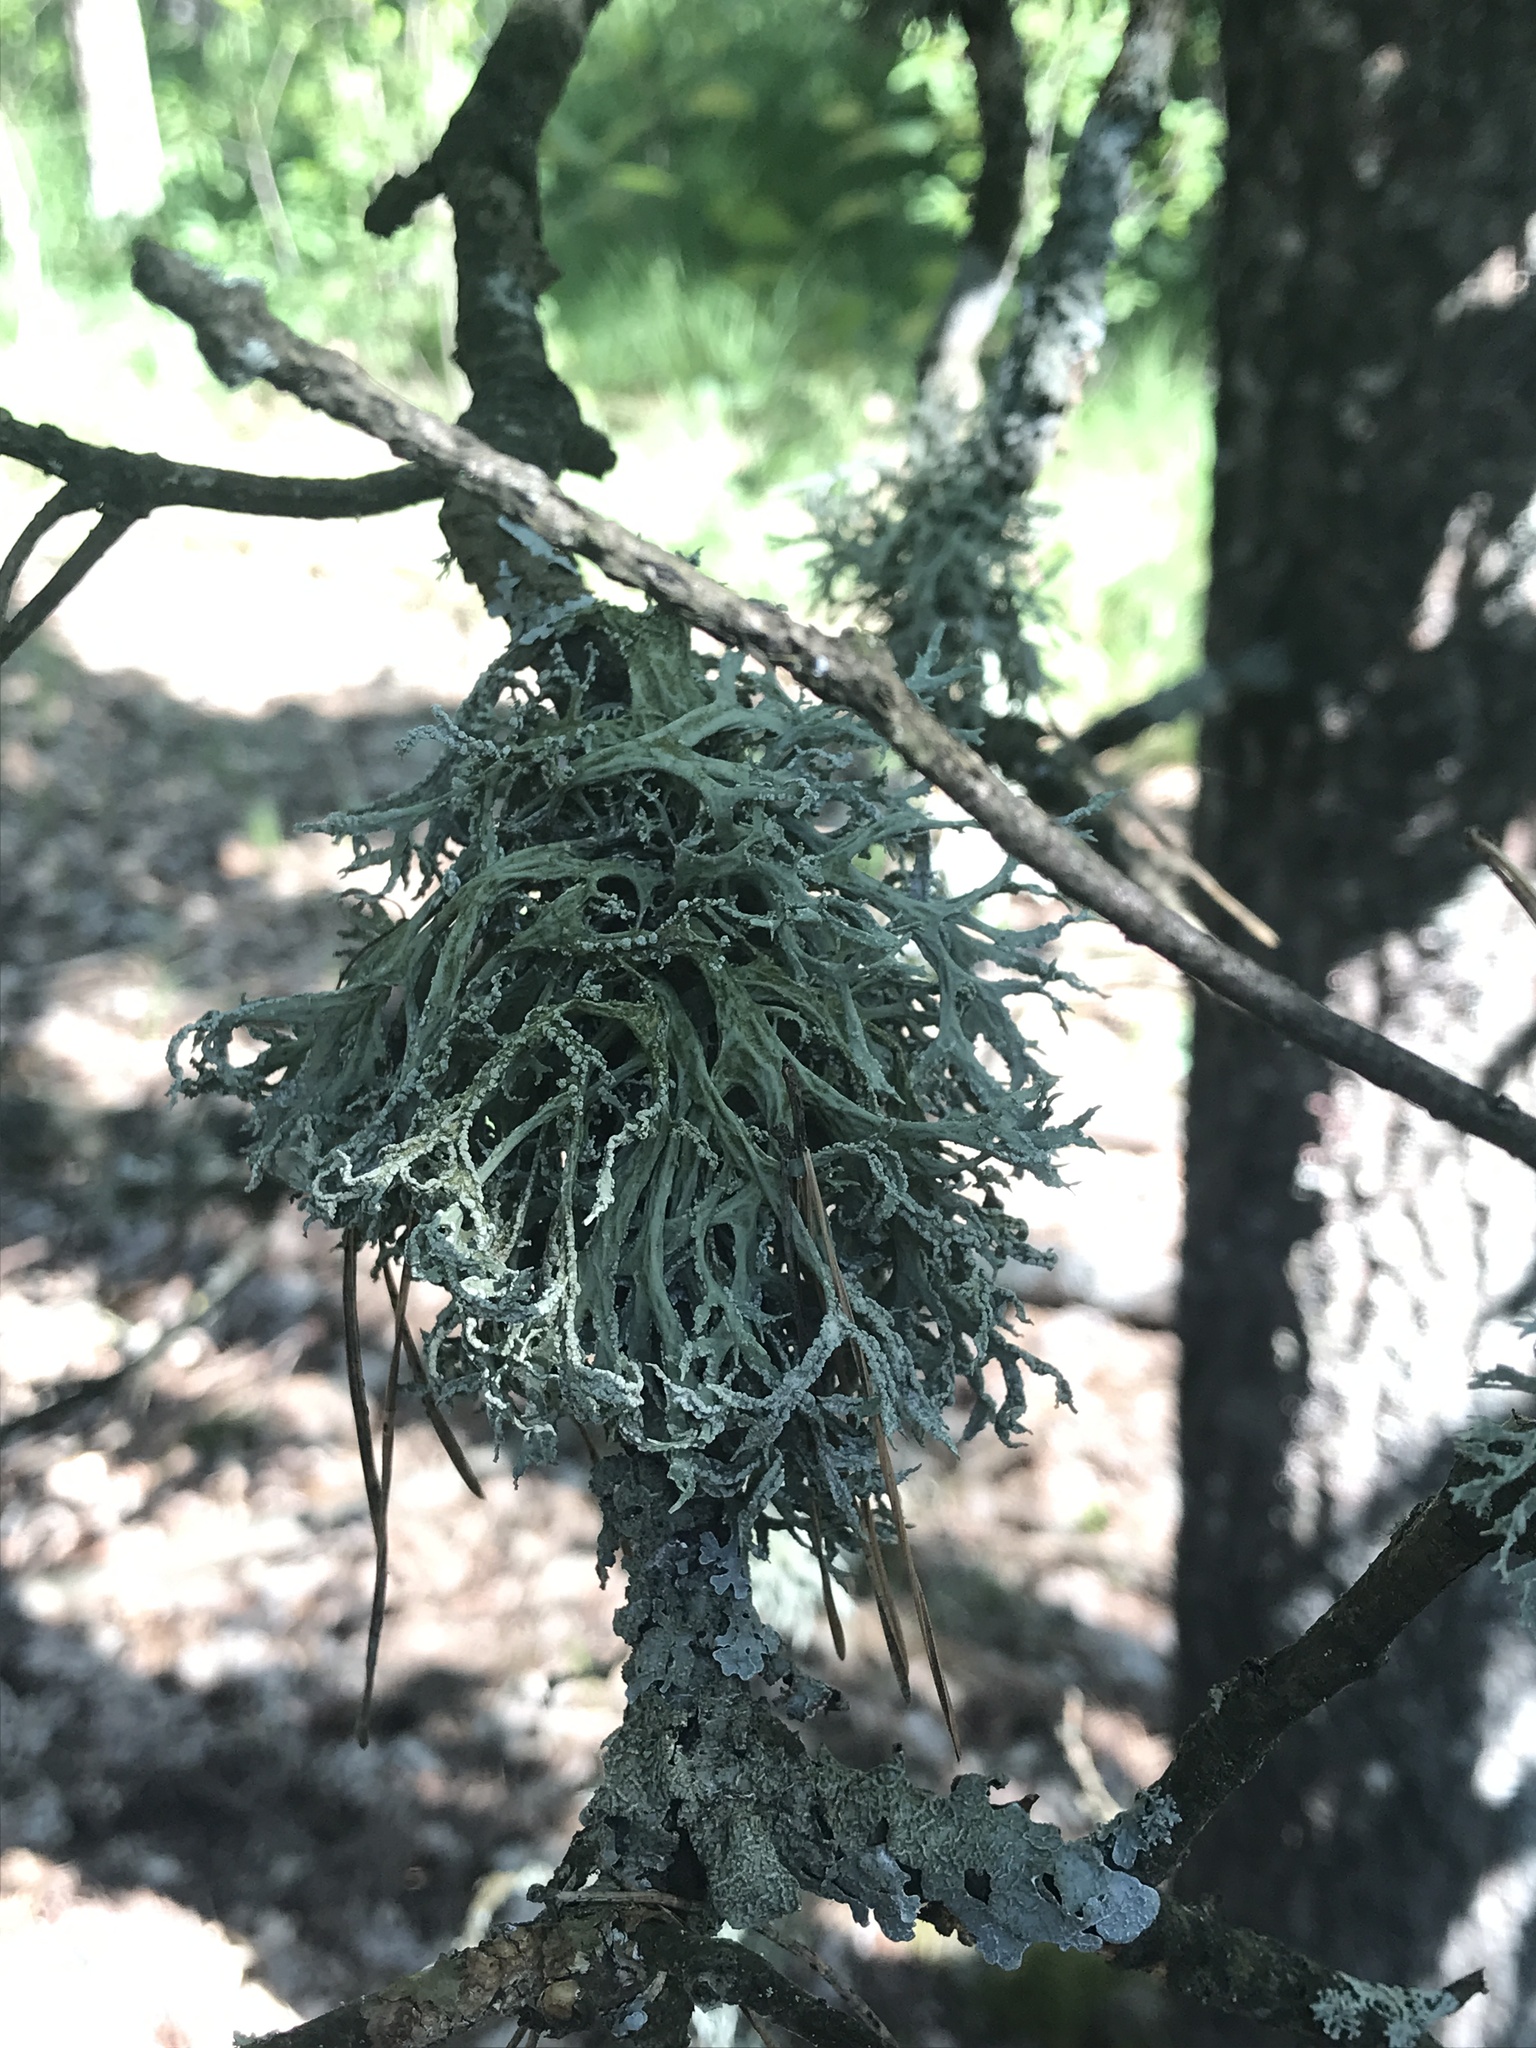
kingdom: Fungi
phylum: Ascomycota
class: Lecanoromycetes
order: Lecanorales
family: Parmeliaceae
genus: Evernia
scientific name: Evernia prunastri
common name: Oak moss
